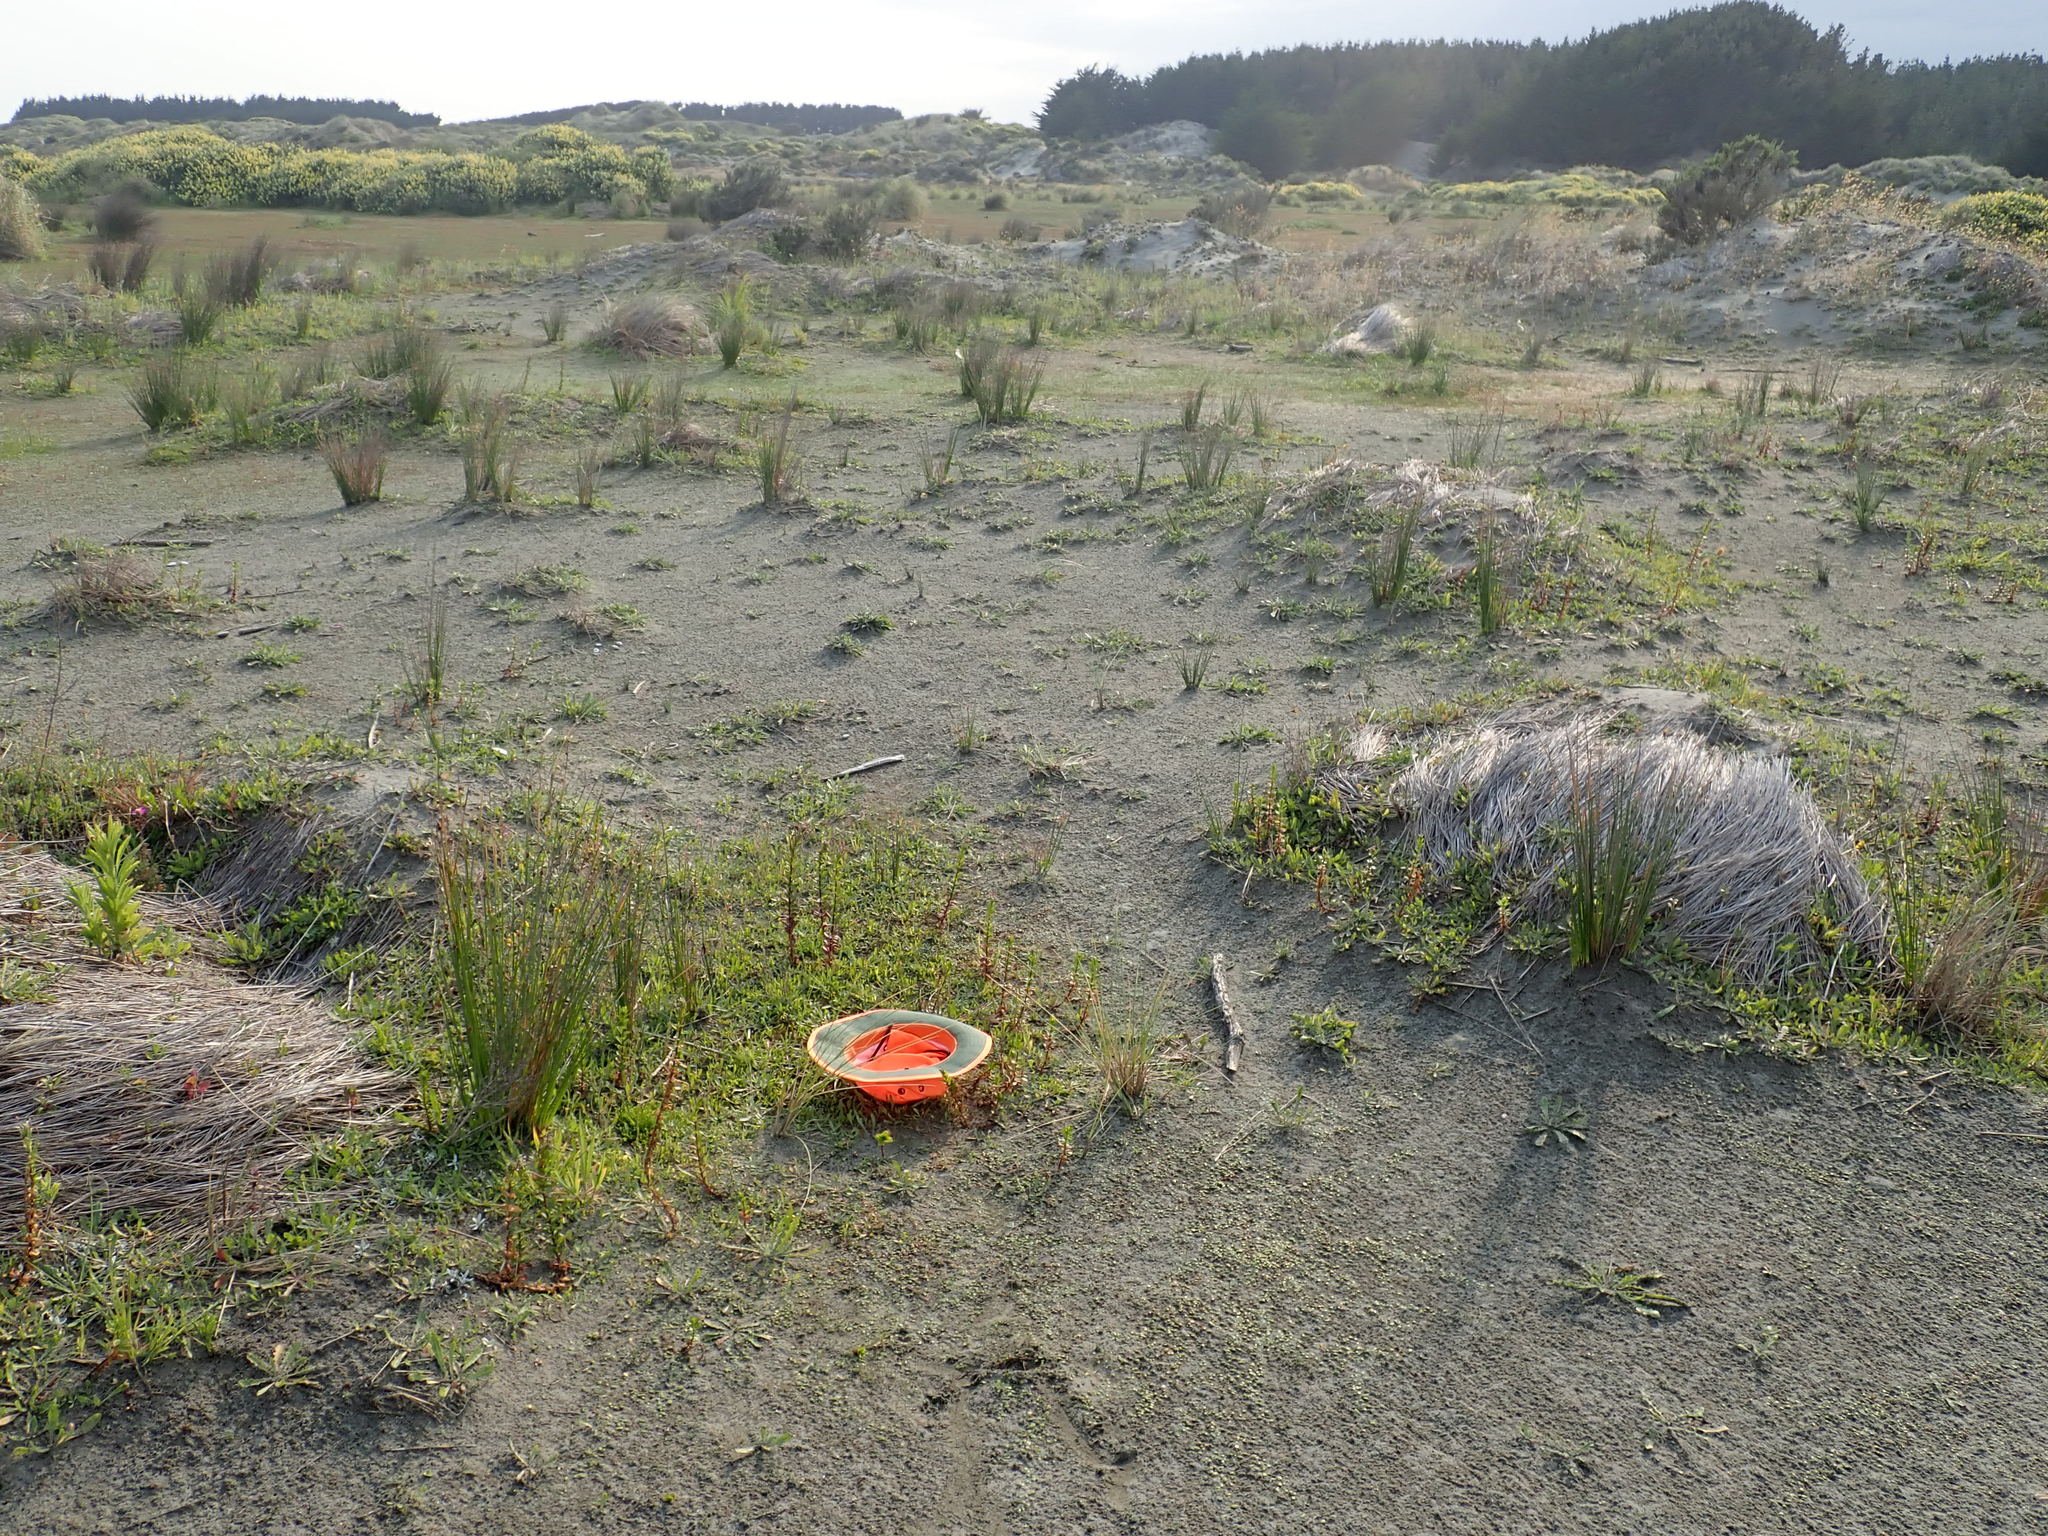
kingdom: Animalia
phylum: Arthropoda
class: Arachnida
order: Opiliones
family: Phalangiidae
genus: Phalangium
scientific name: Phalangium opilio
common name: Daddy longleg
